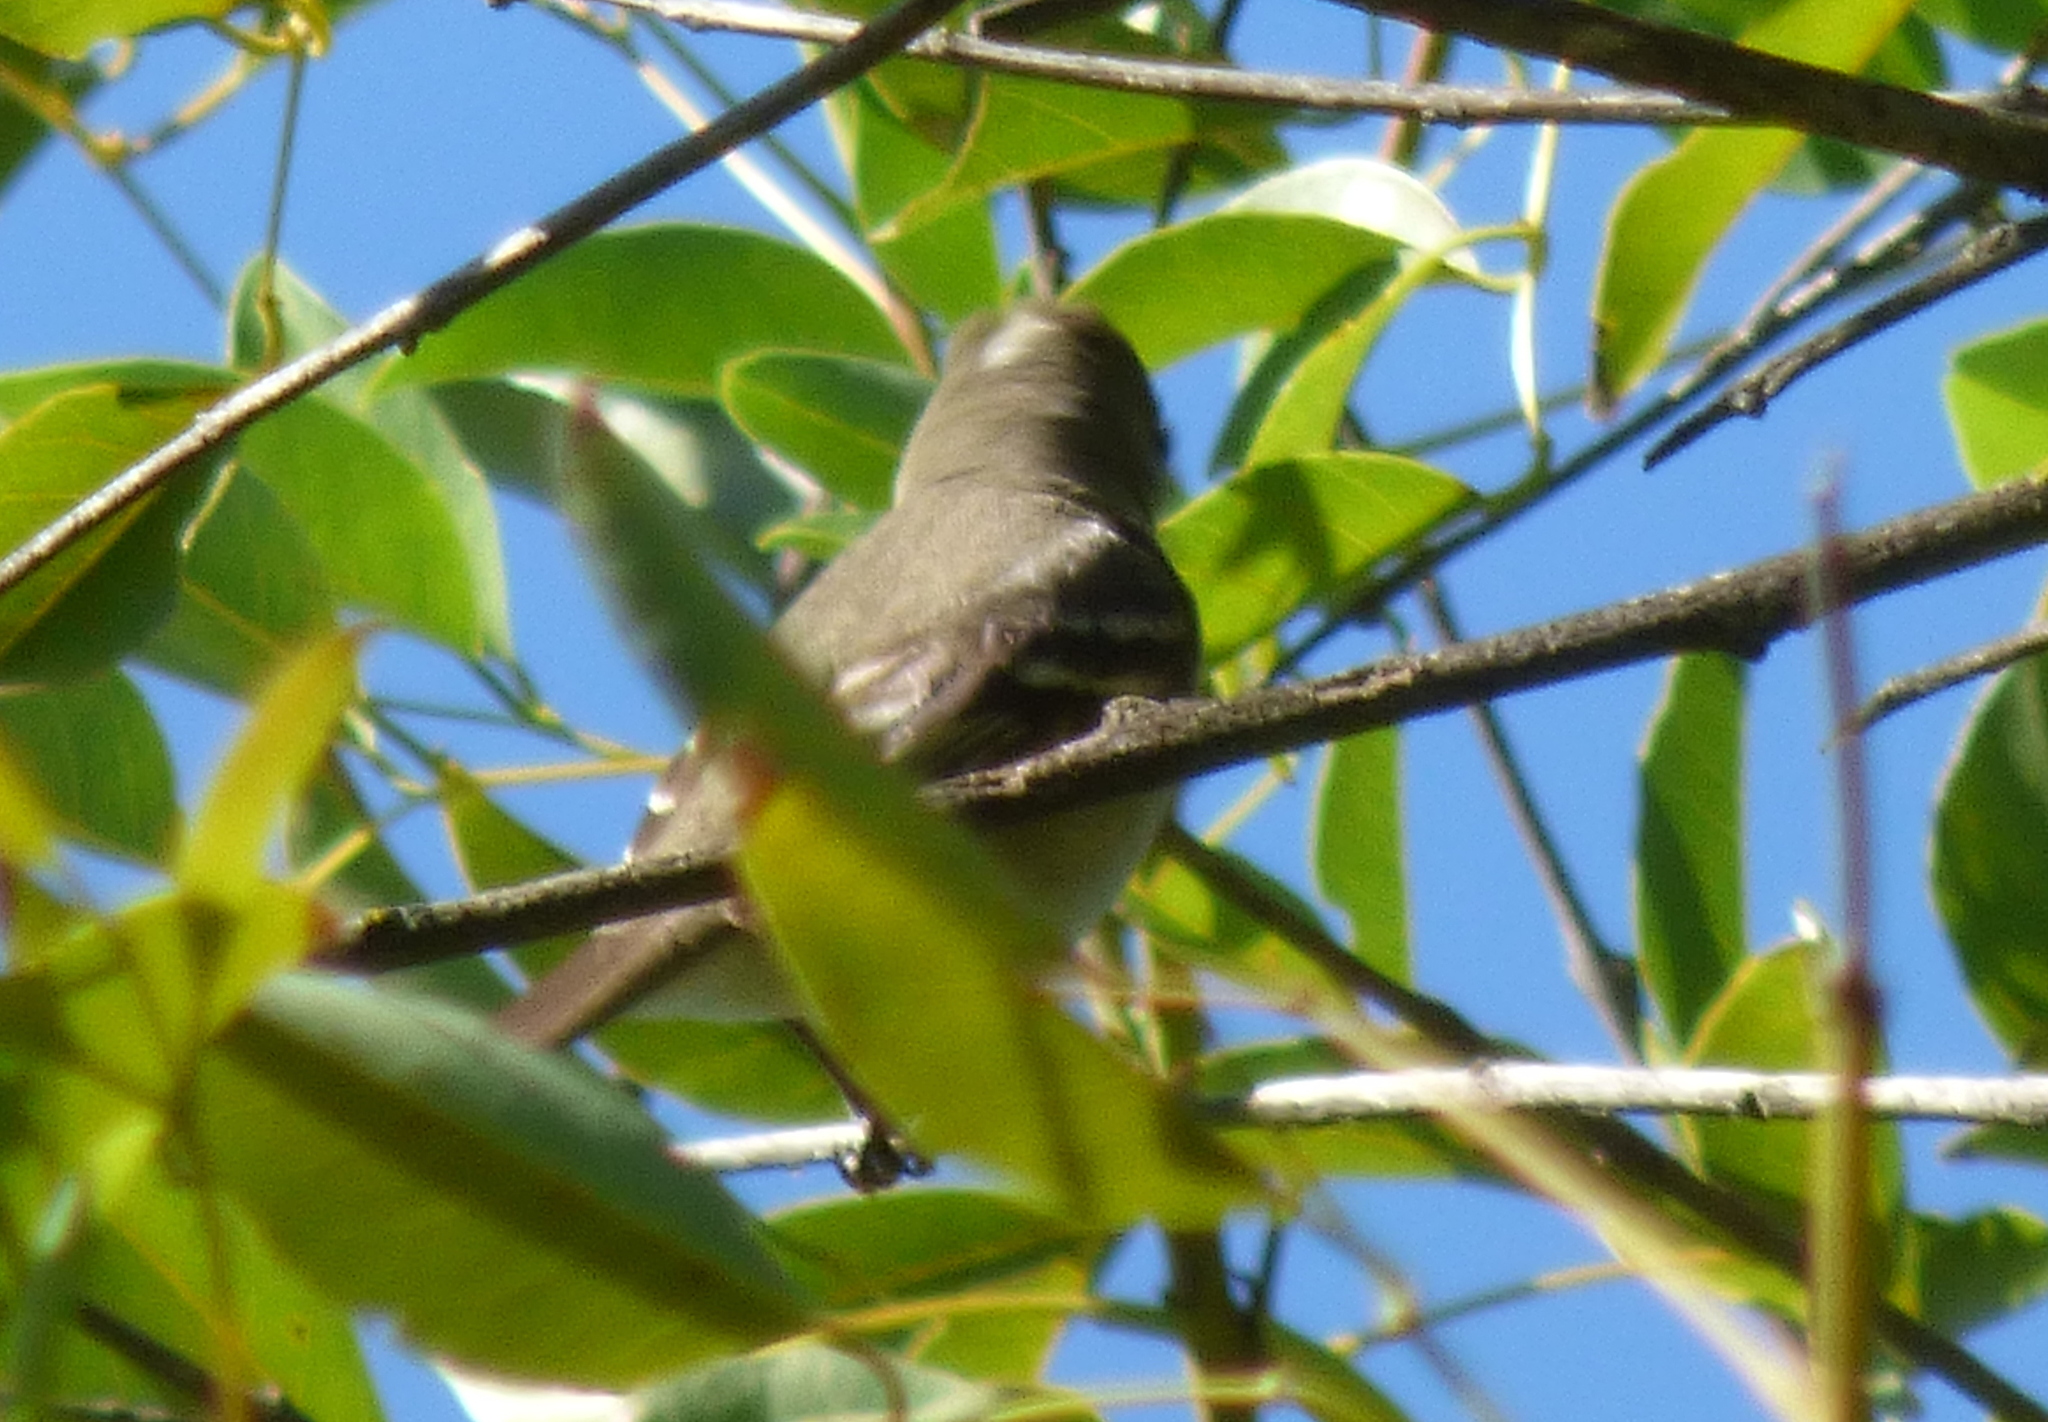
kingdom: Animalia
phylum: Chordata
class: Aves
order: Passeriformes
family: Tyrannidae
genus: Elaenia
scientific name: Elaenia parvirostris
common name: Small-billed elaenia
